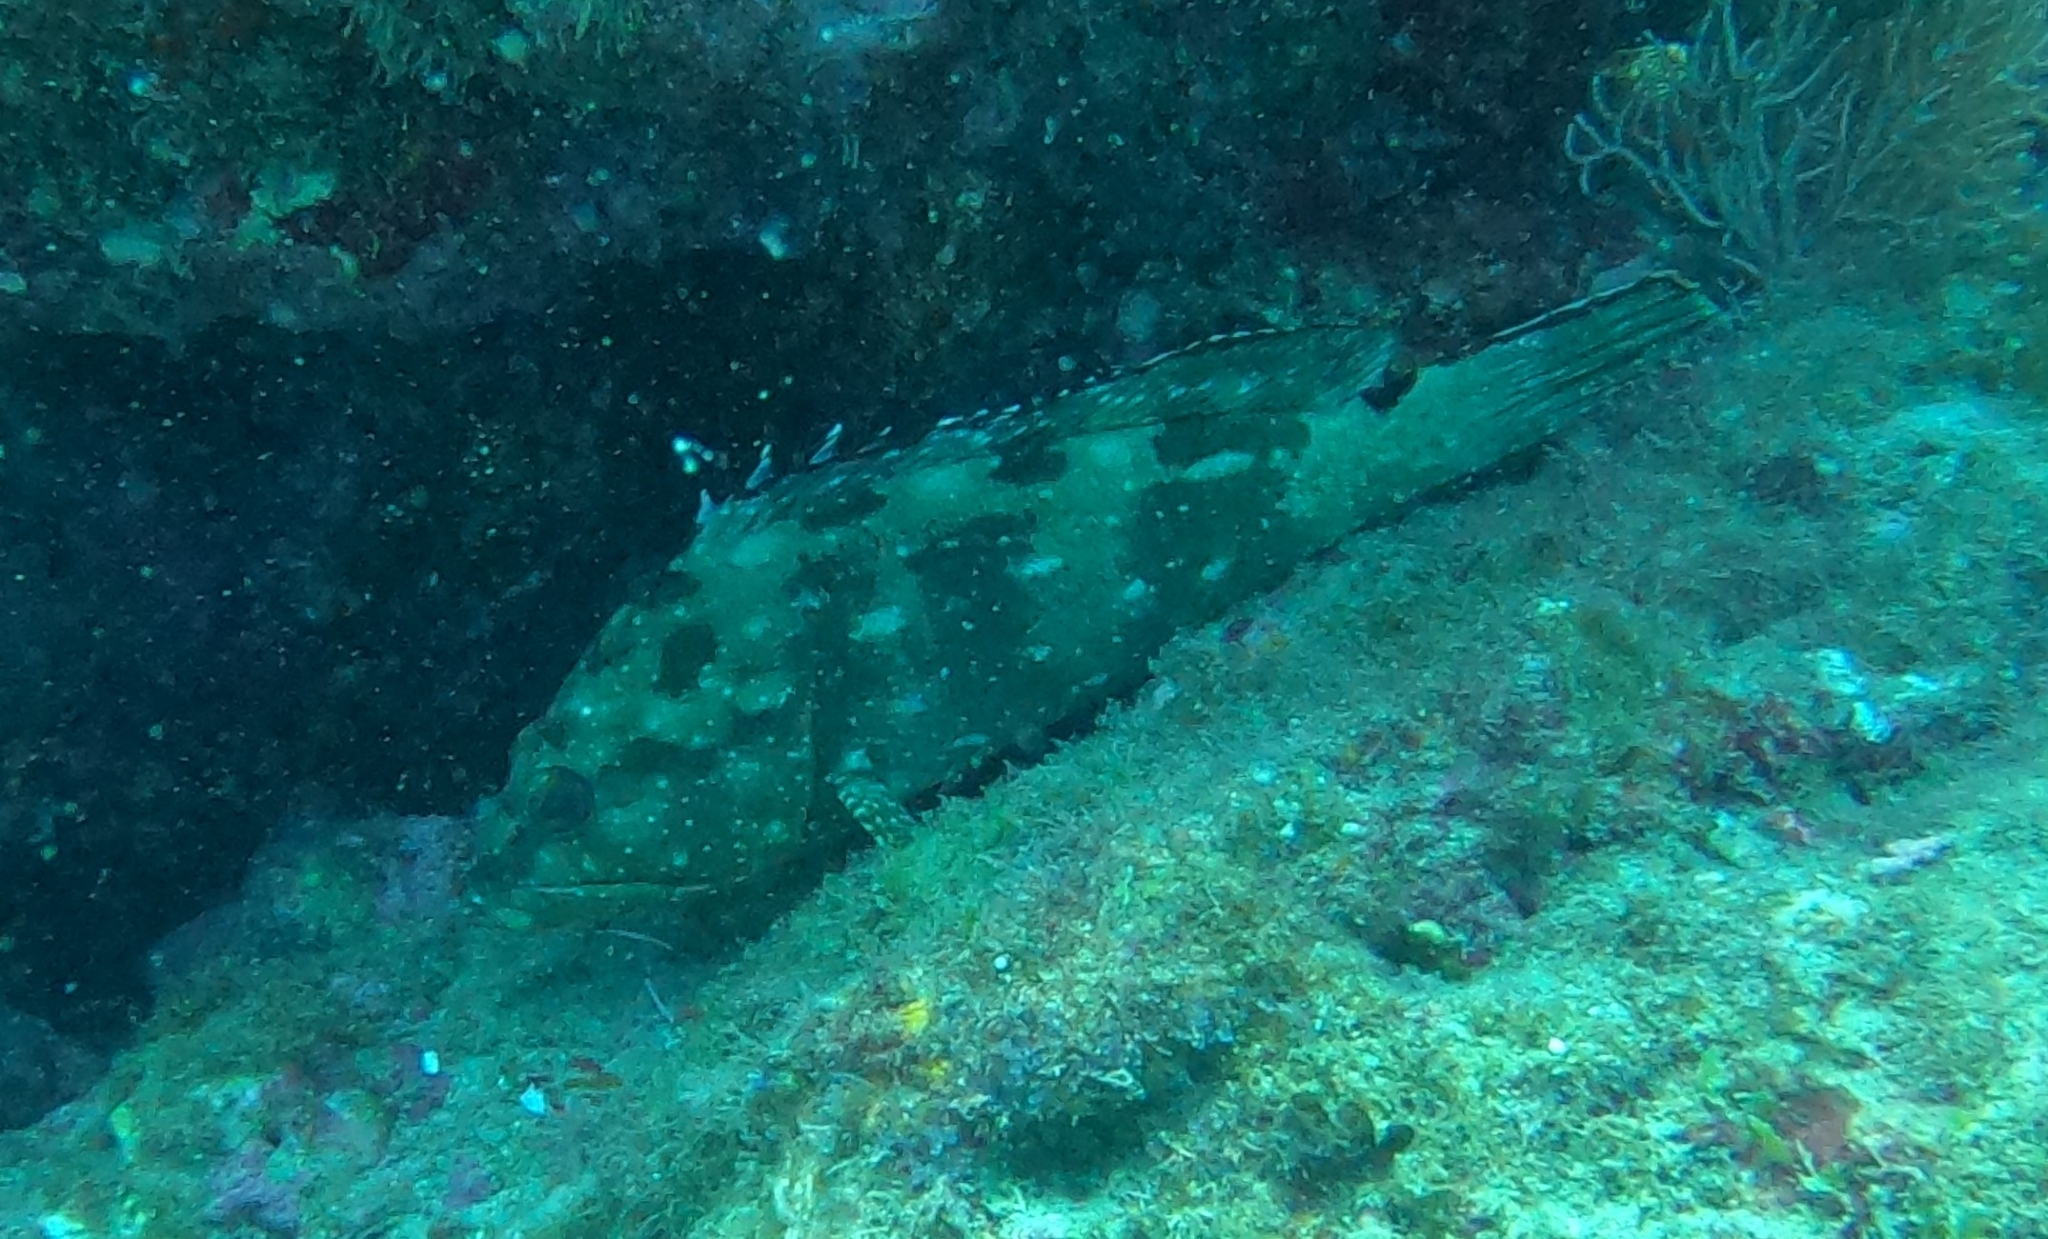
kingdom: Animalia
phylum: Chordata
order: Perciformes
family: Serranidae
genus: Epinephelus
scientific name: Epinephelus labriformis
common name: Flag cabrilla
